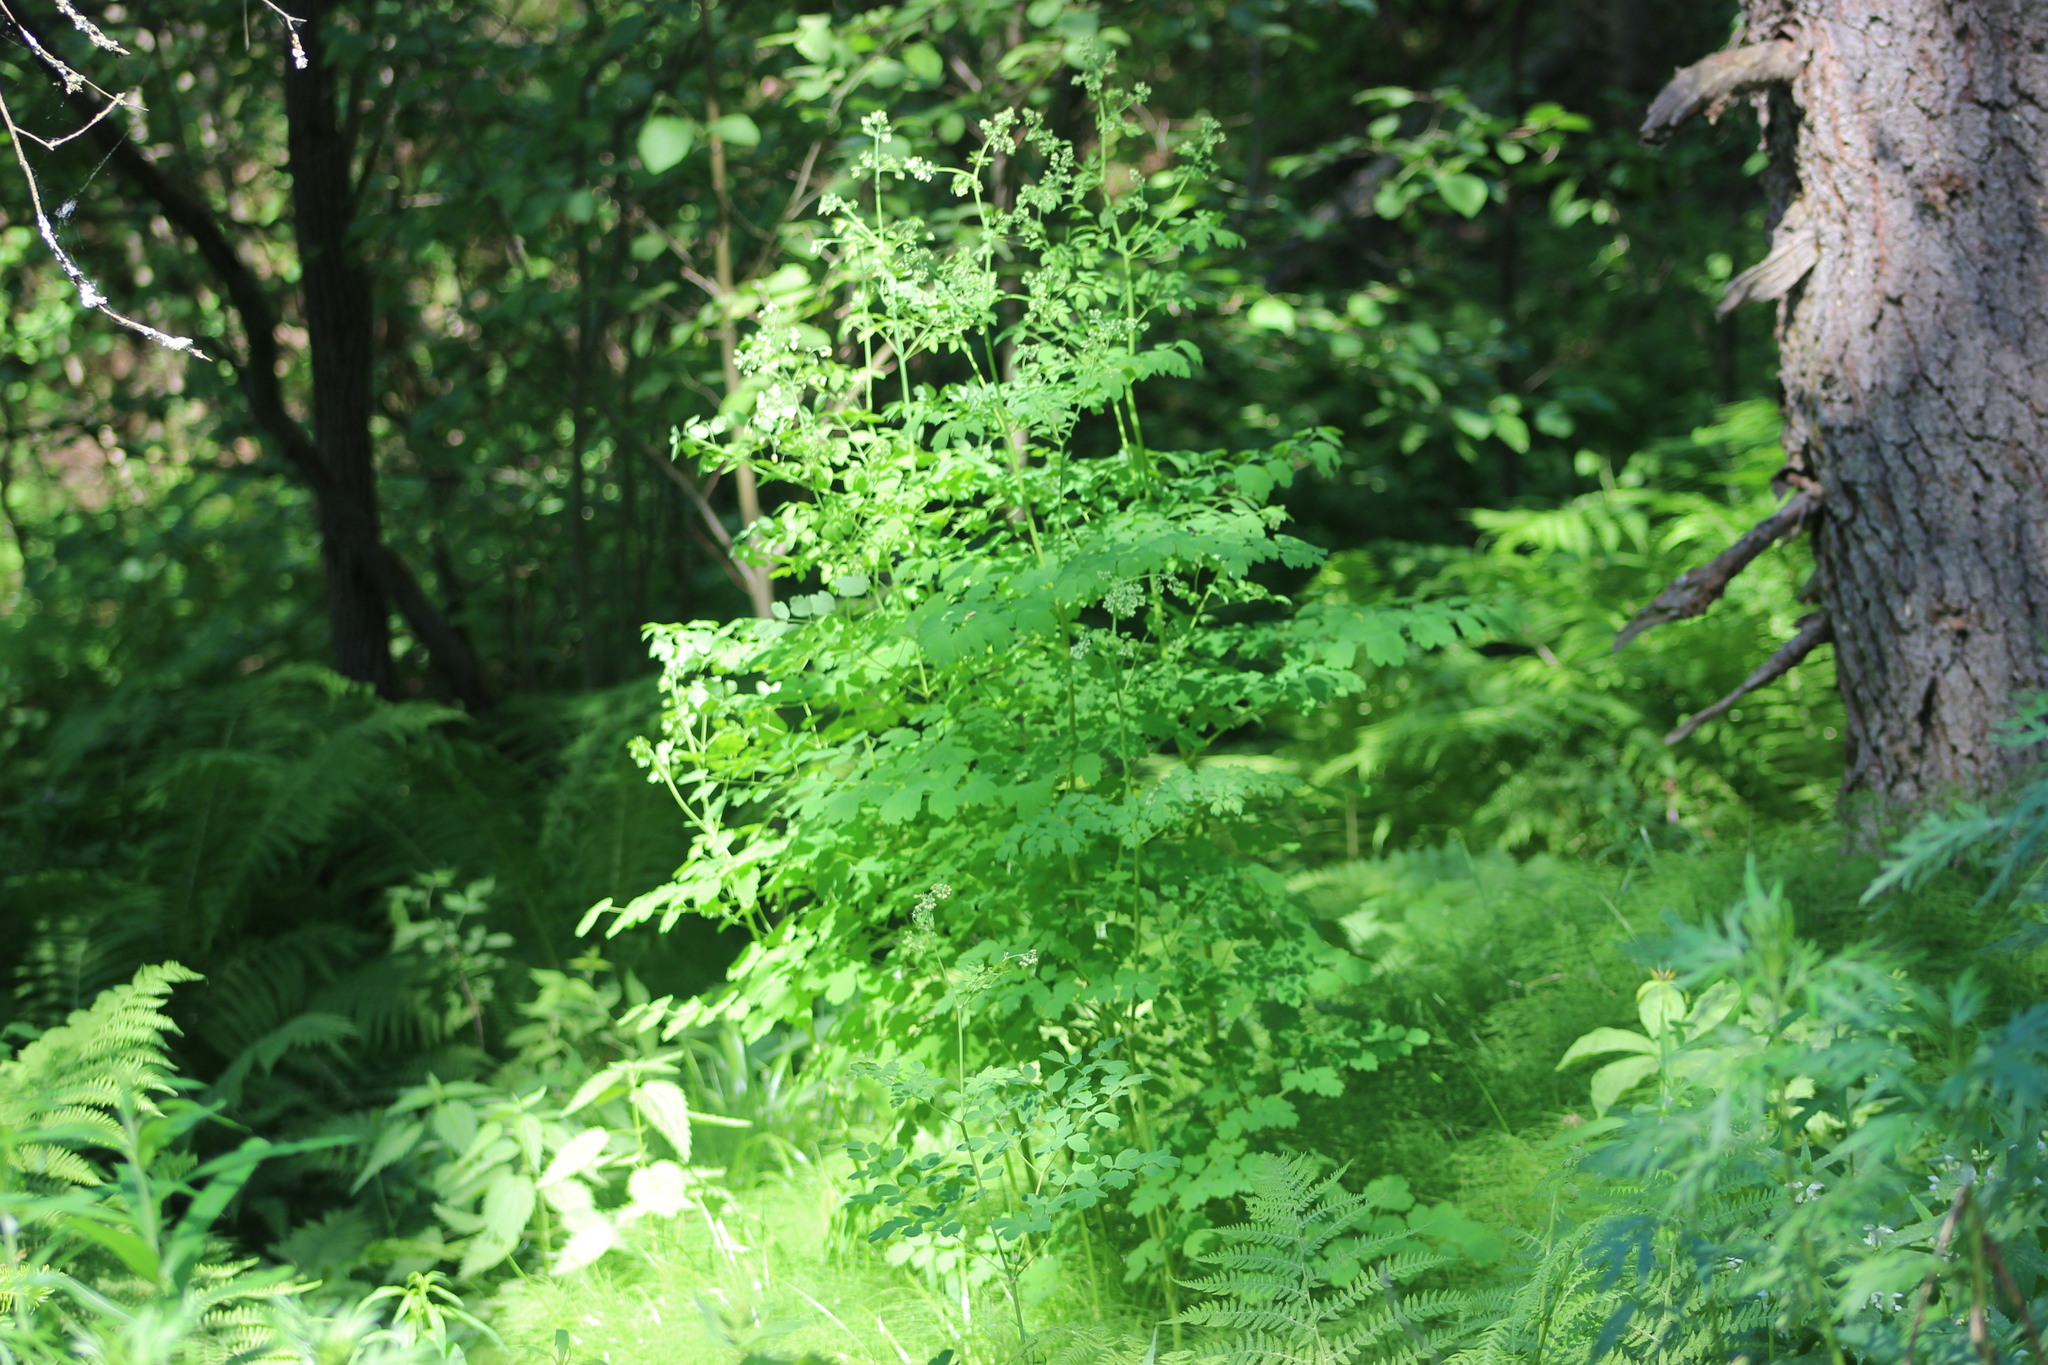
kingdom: Plantae
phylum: Tracheophyta
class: Magnoliopsida
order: Ranunculales
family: Ranunculaceae
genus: Thalictrum
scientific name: Thalictrum minus
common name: Lesser meadow-rue
